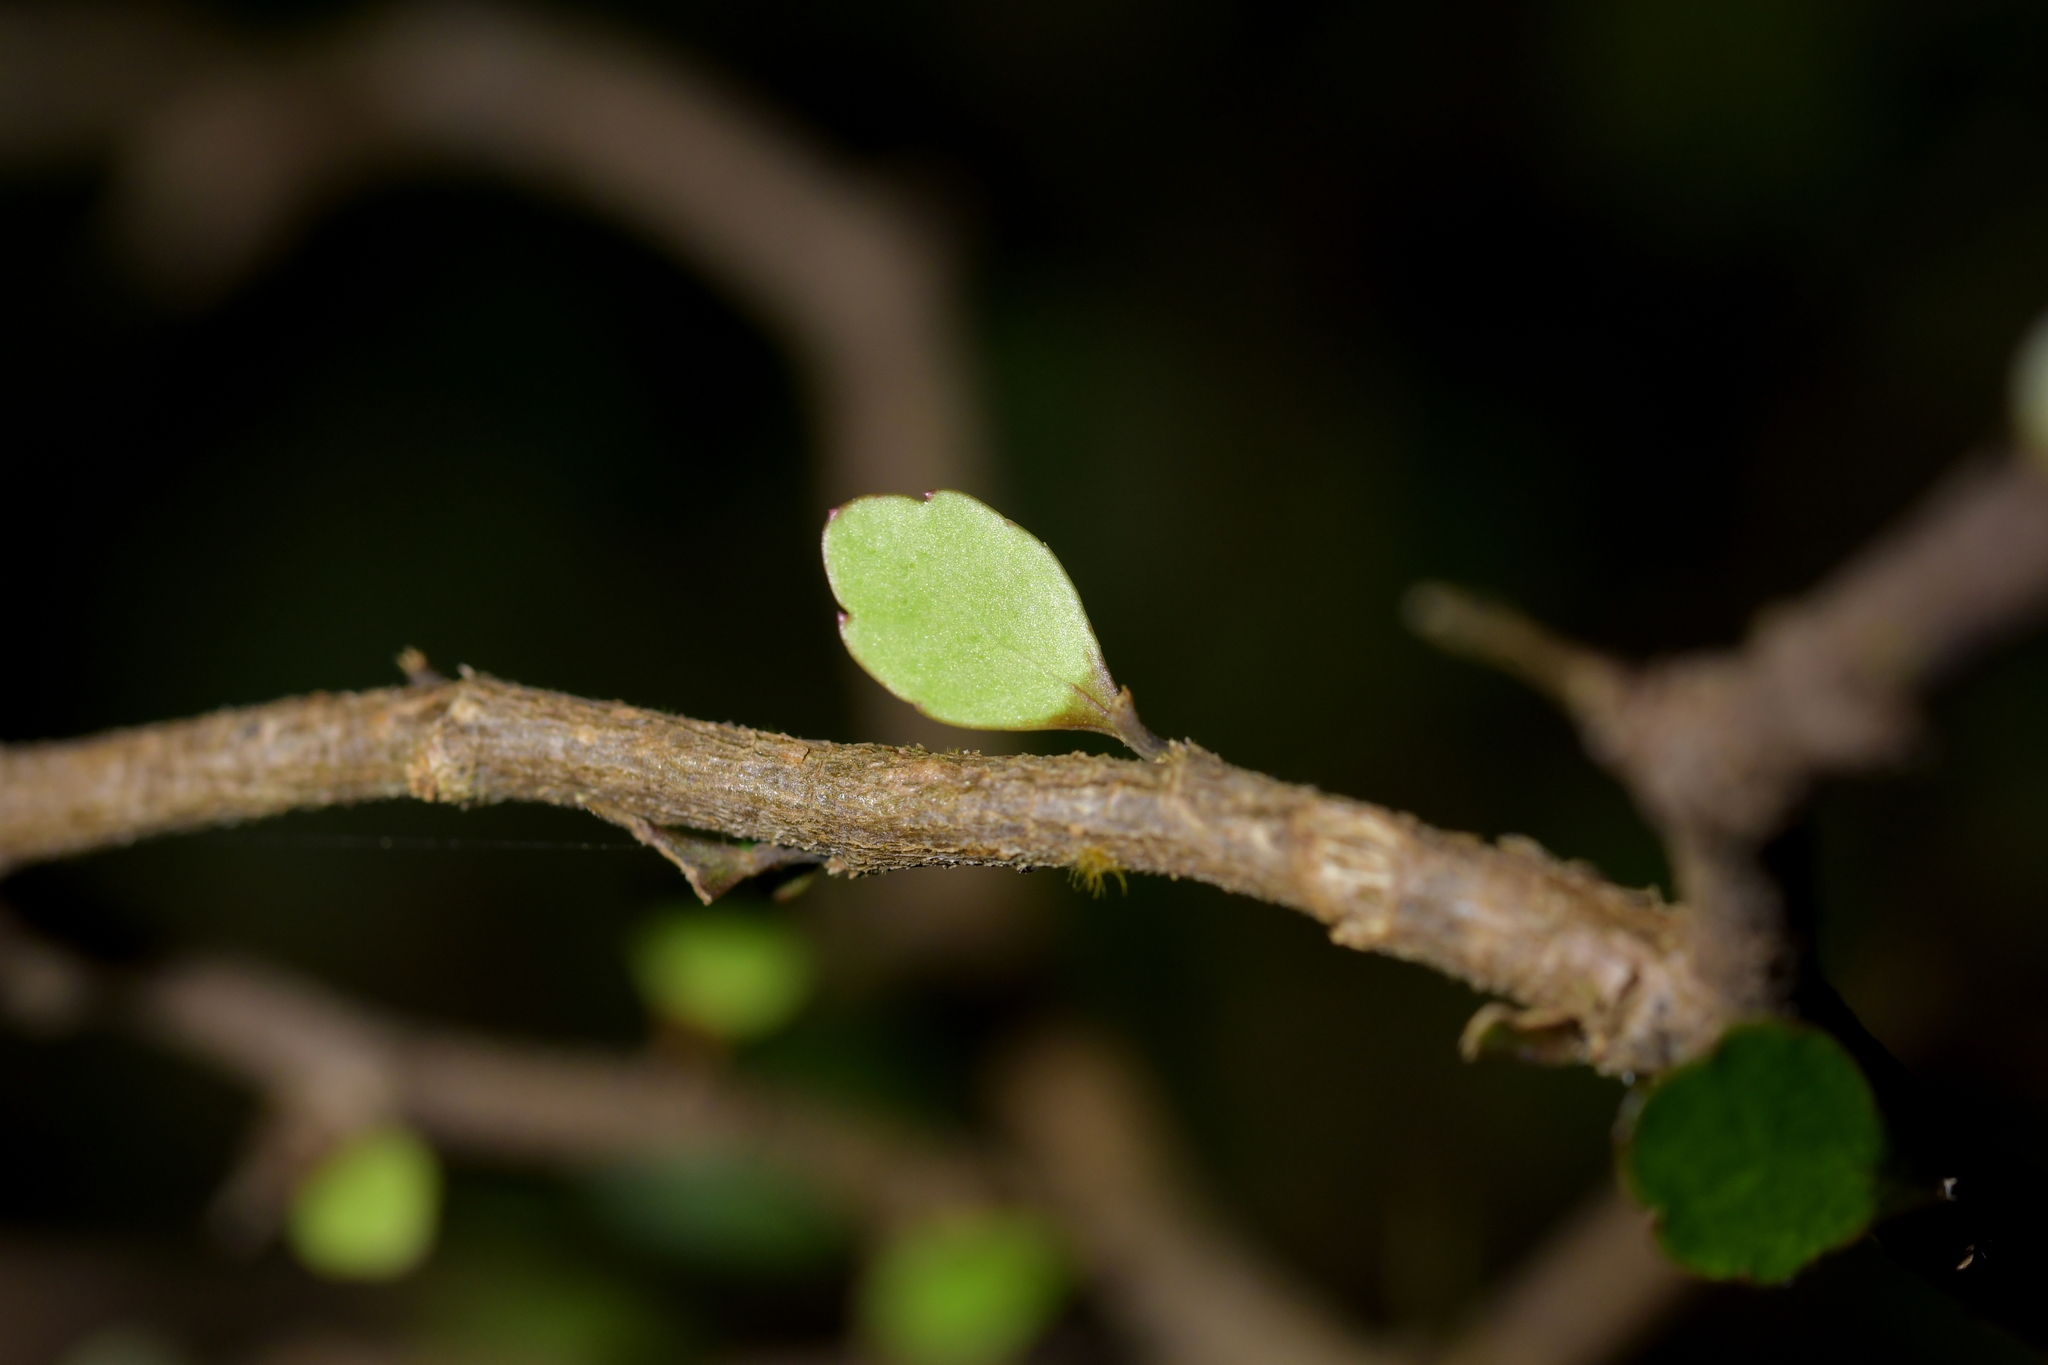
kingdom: Plantae
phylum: Tracheophyta
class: Magnoliopsida
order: Apiales
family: Araliaceae
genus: Raukaua
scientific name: Raukaua anomalus
